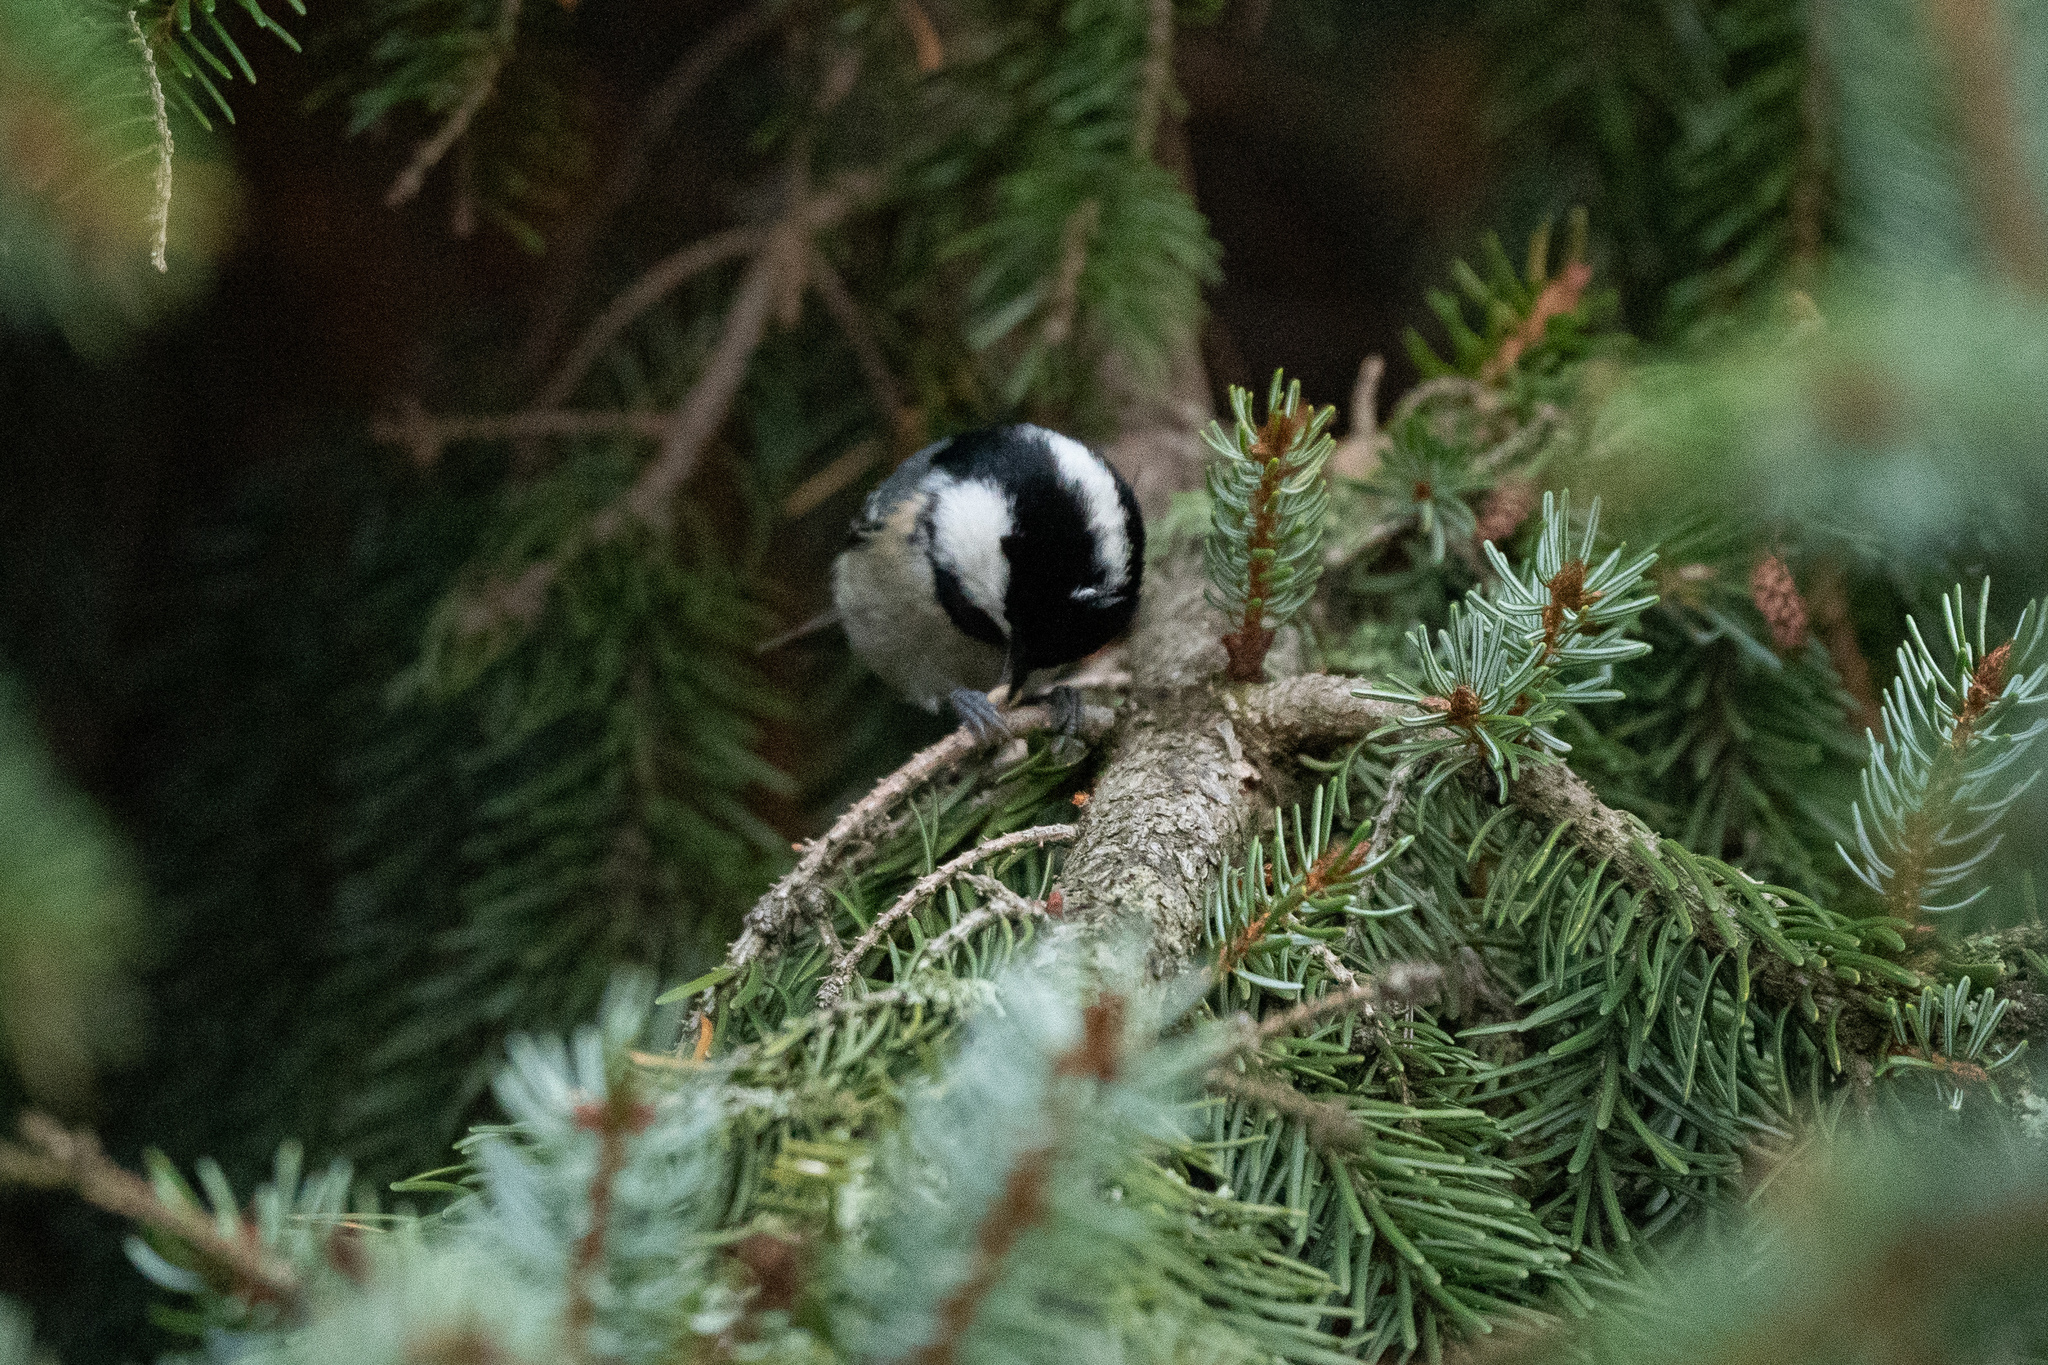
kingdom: Animalia
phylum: Chordata
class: Aves
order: Passeriformes
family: Paridae
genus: Periparus
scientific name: Periparus ater
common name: Coal tit
